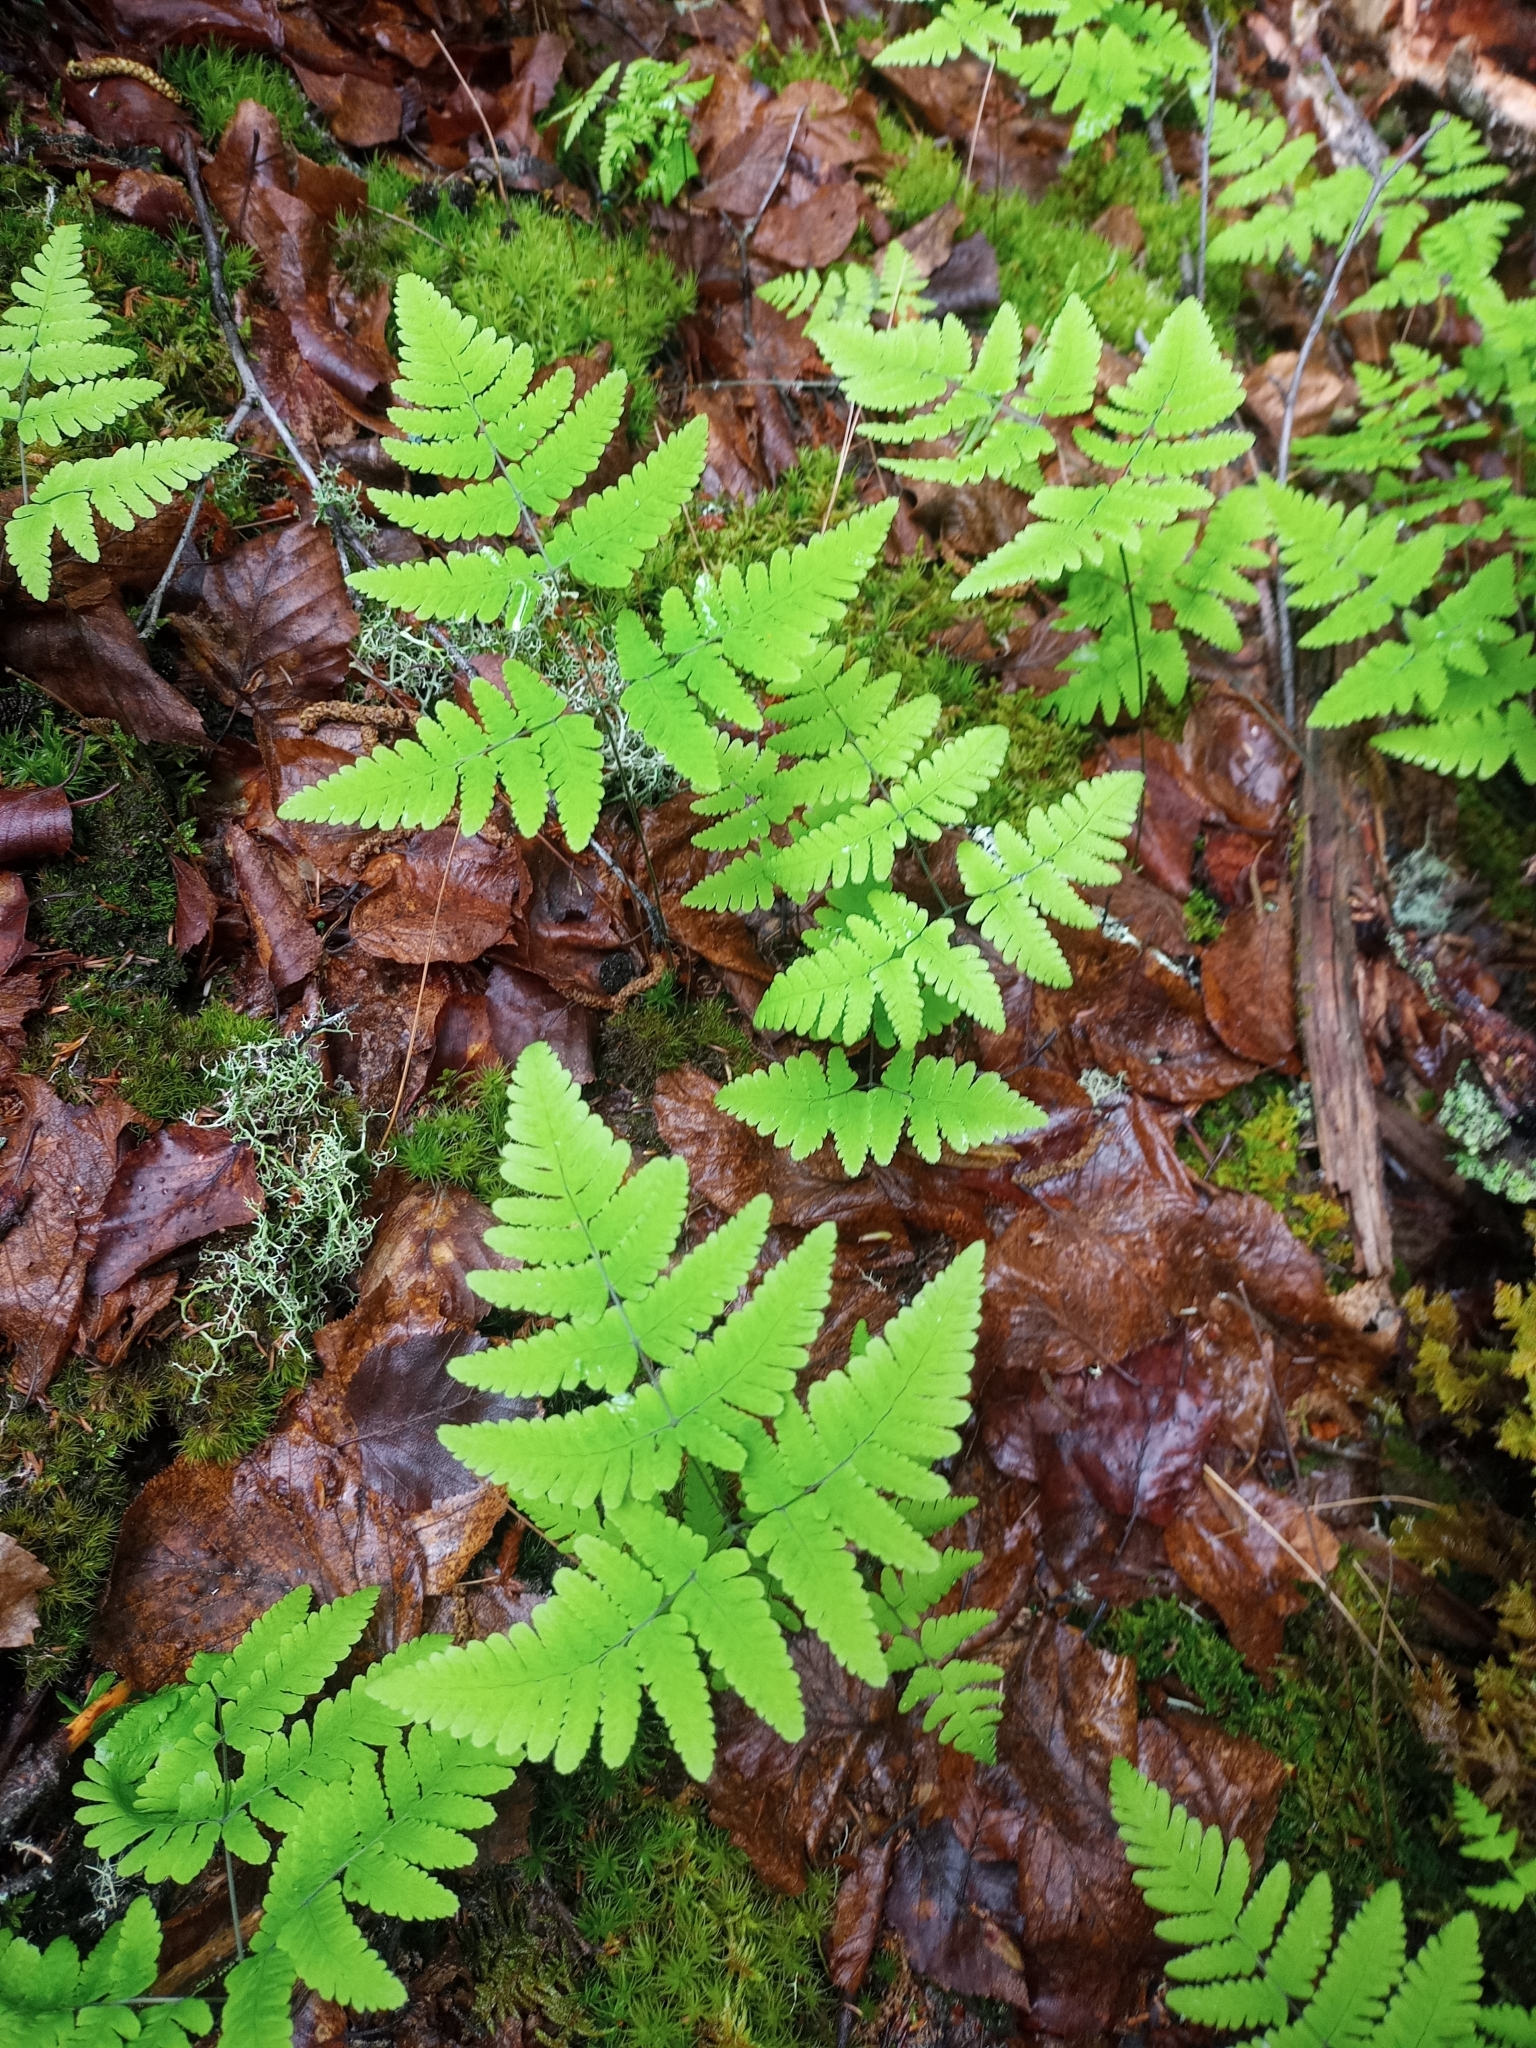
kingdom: Plantae
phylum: Tracheophyta
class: Polypodiopsida
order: Polypodiales
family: Cystopteridaceae
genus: Gymnocarpium
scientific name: Gymnocarpium dryopteris
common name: Oak fern
